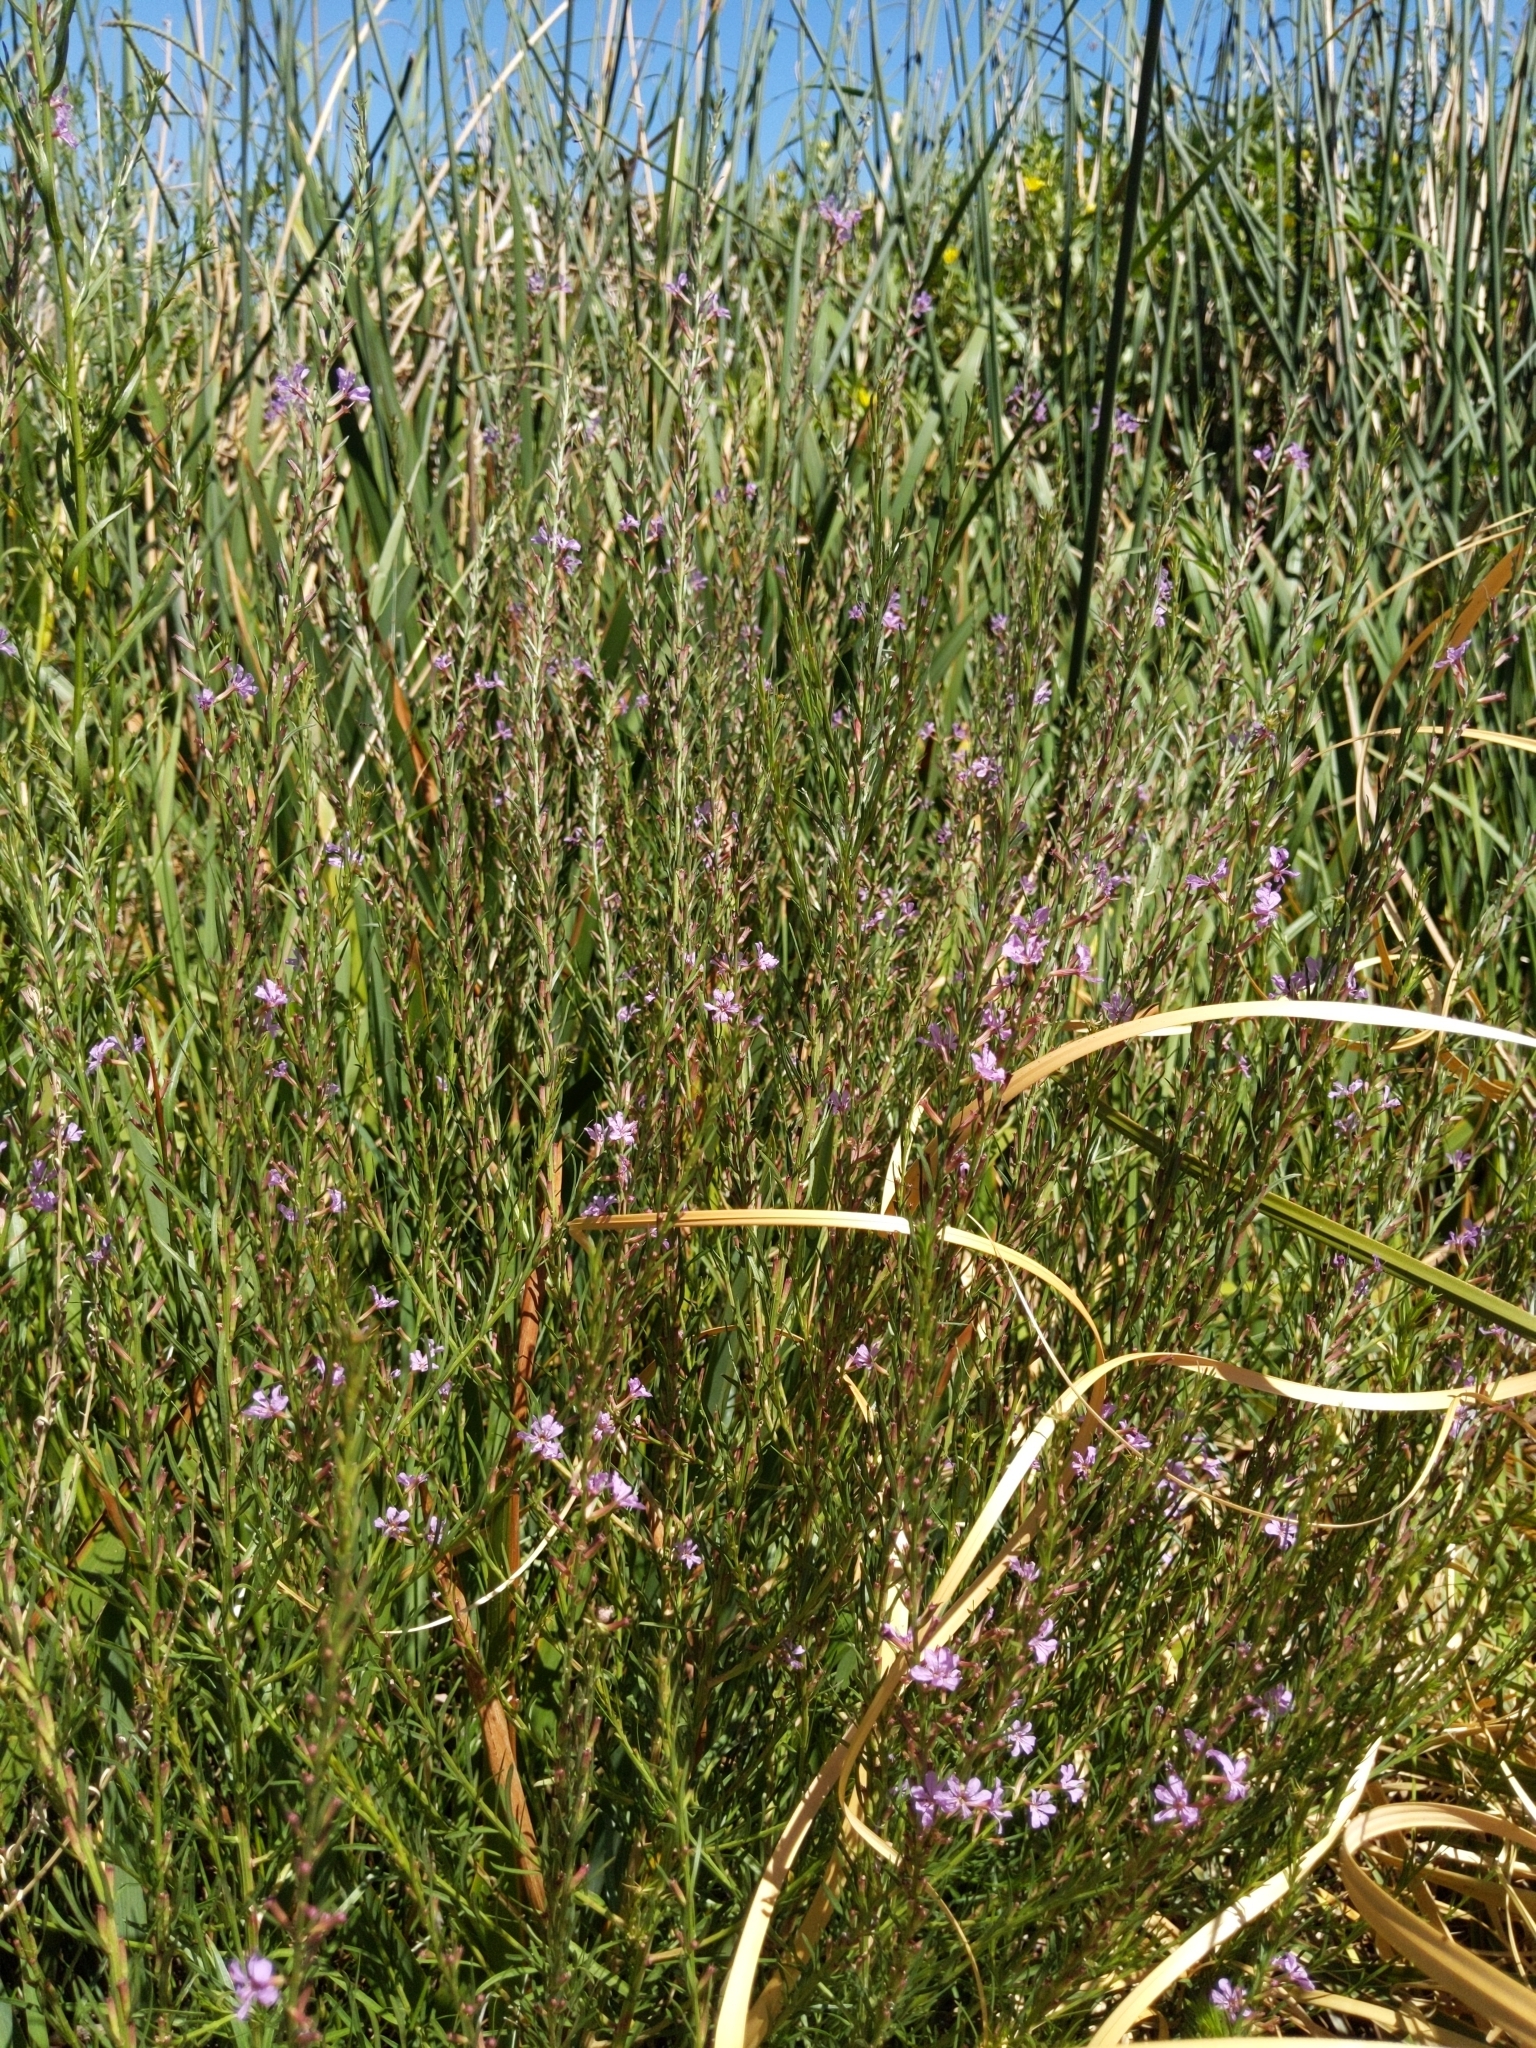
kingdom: Plantae
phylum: Tracheophyta
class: Magnoliopsida
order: Myrtales
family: Lythraceae
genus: Lythrum
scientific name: Lythrum californicum
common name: California loosestrife
